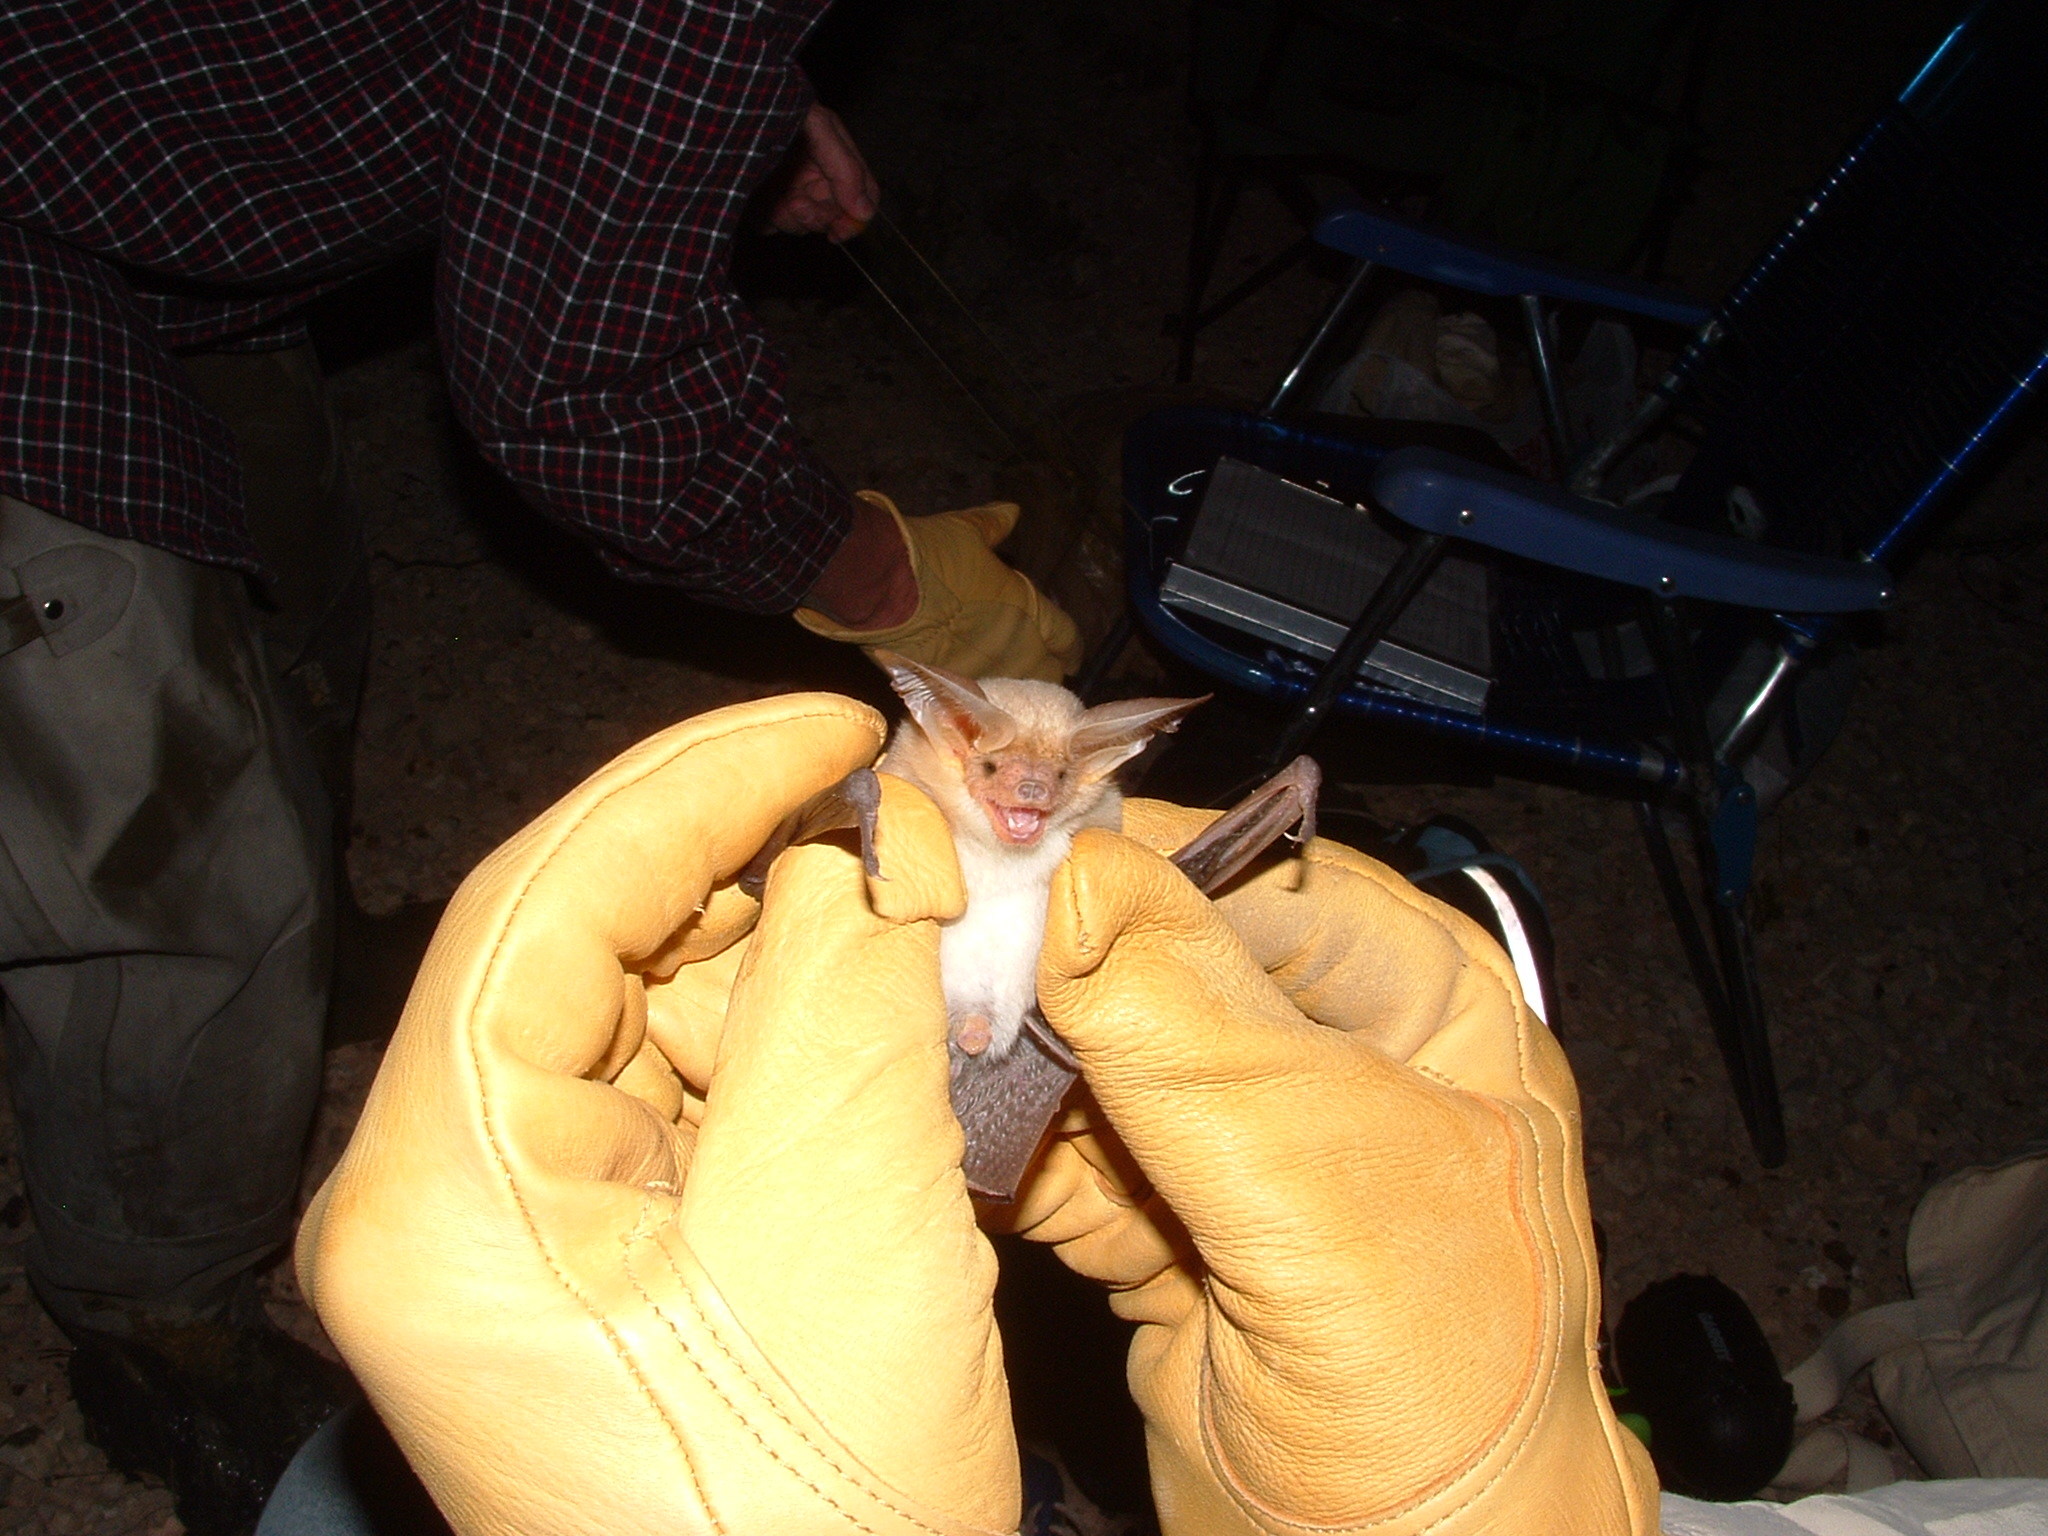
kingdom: Animalia
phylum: Chordata
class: Mammalia
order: Chiroptera
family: Vespertilionidae
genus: Antrozous
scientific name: Antrozous pallidus
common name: Pallid bat
